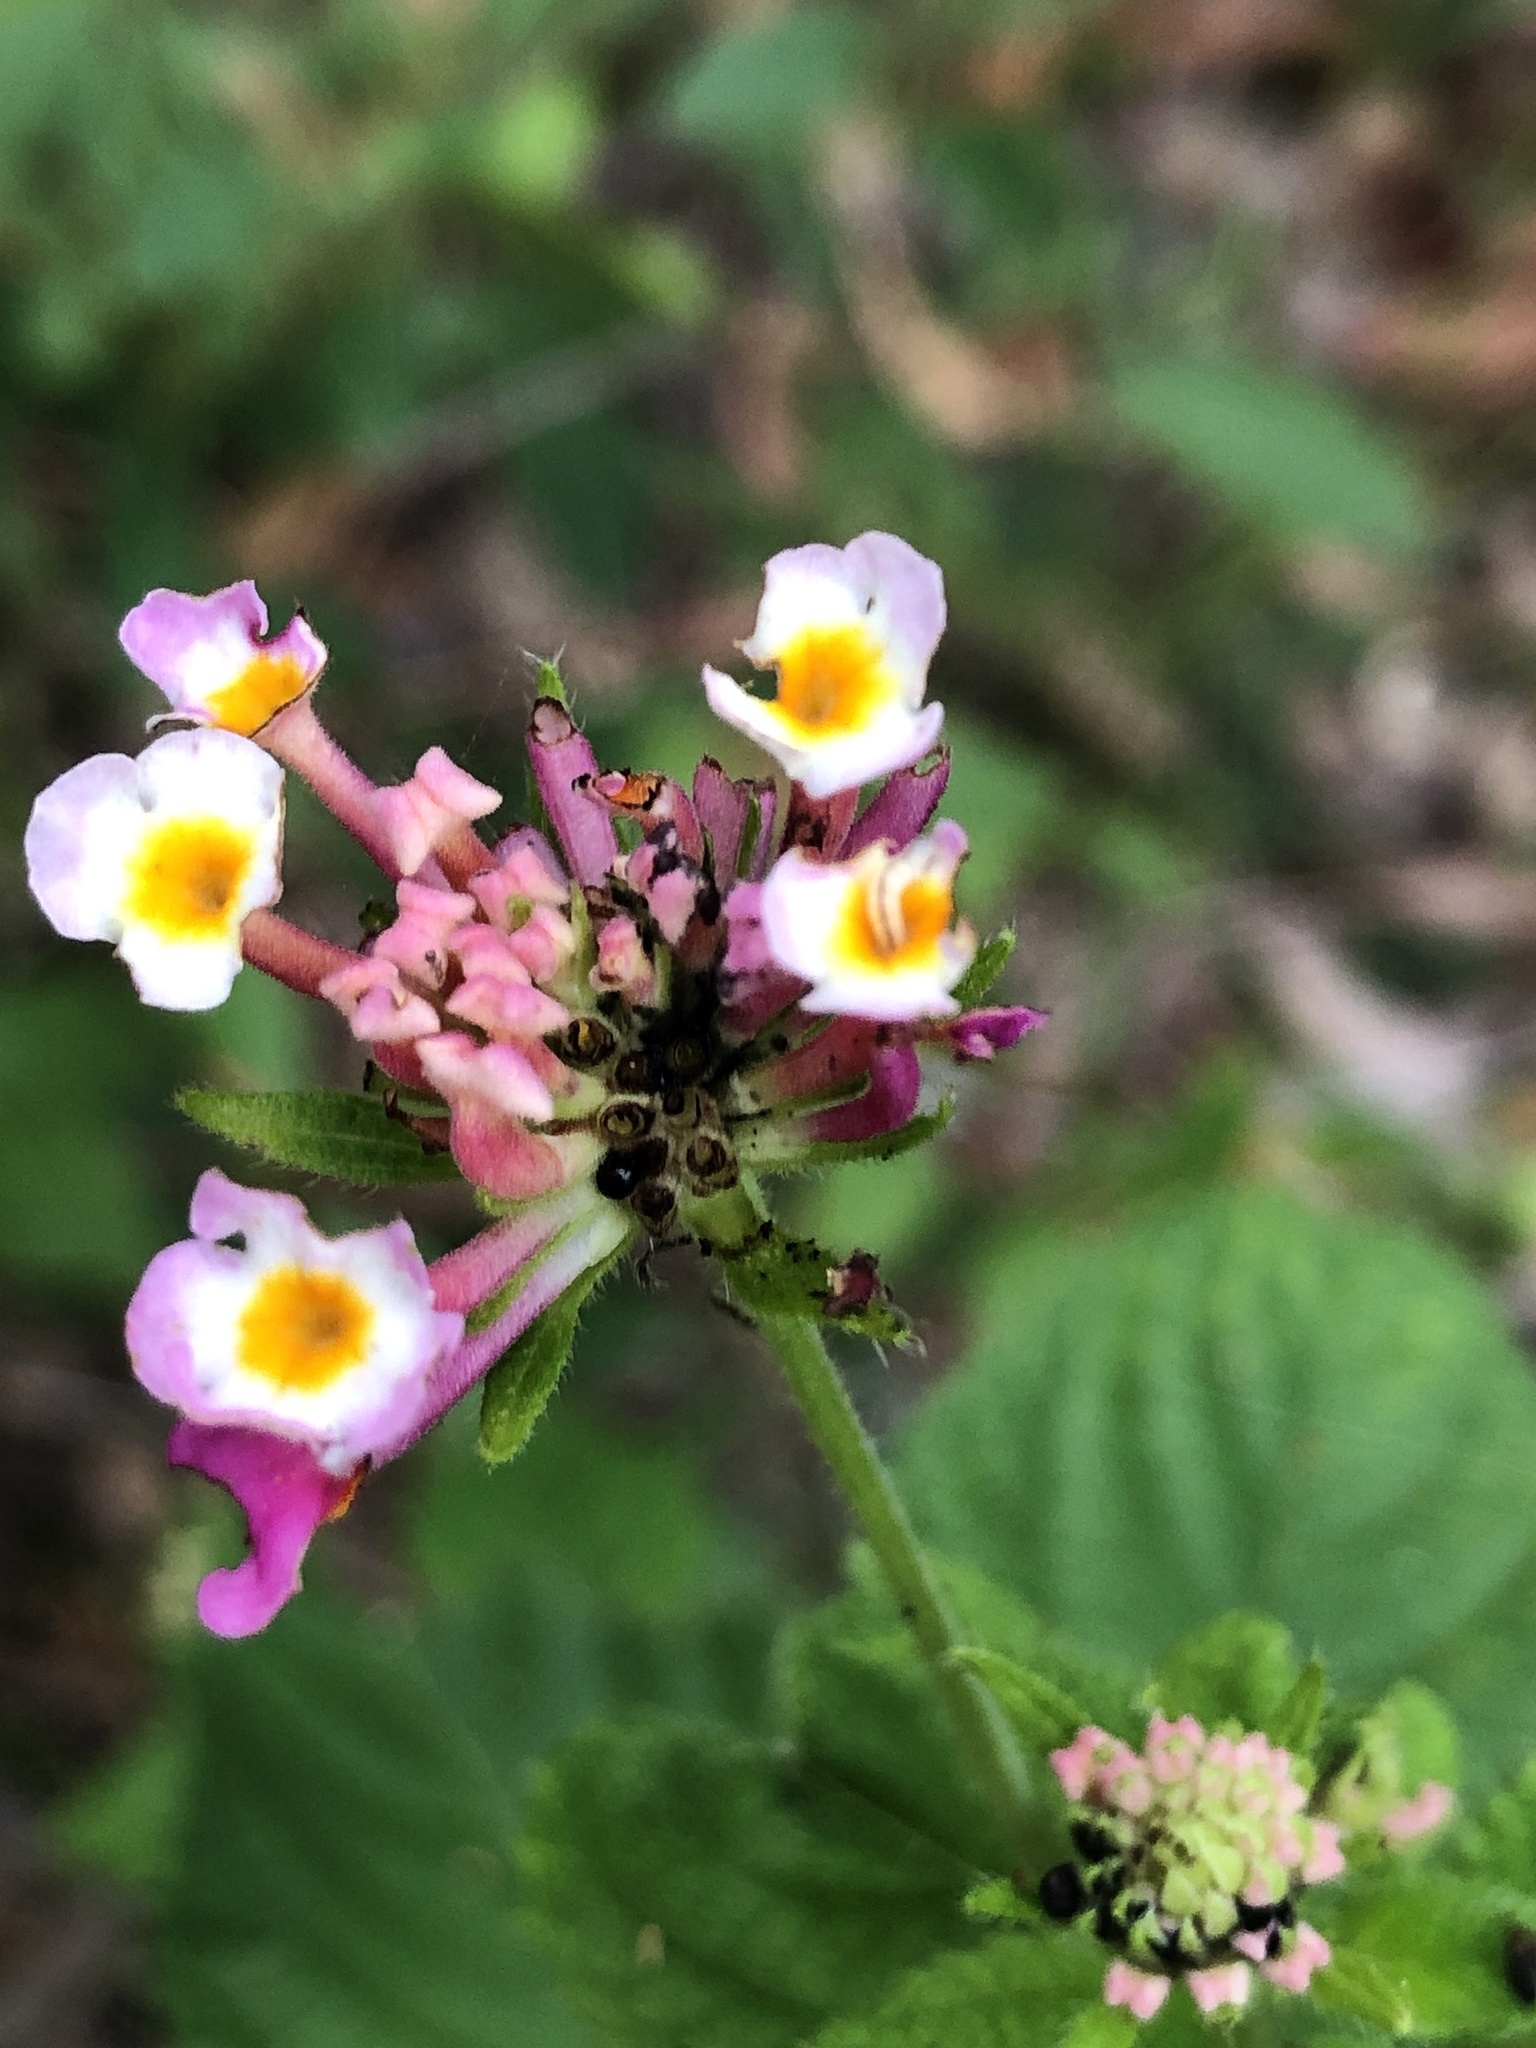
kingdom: Plantae
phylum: Tracheophyta
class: Magnoliopsida
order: Lamiales
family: Verbenaceae
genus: Lantana
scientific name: Lantana camara
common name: Lantana
